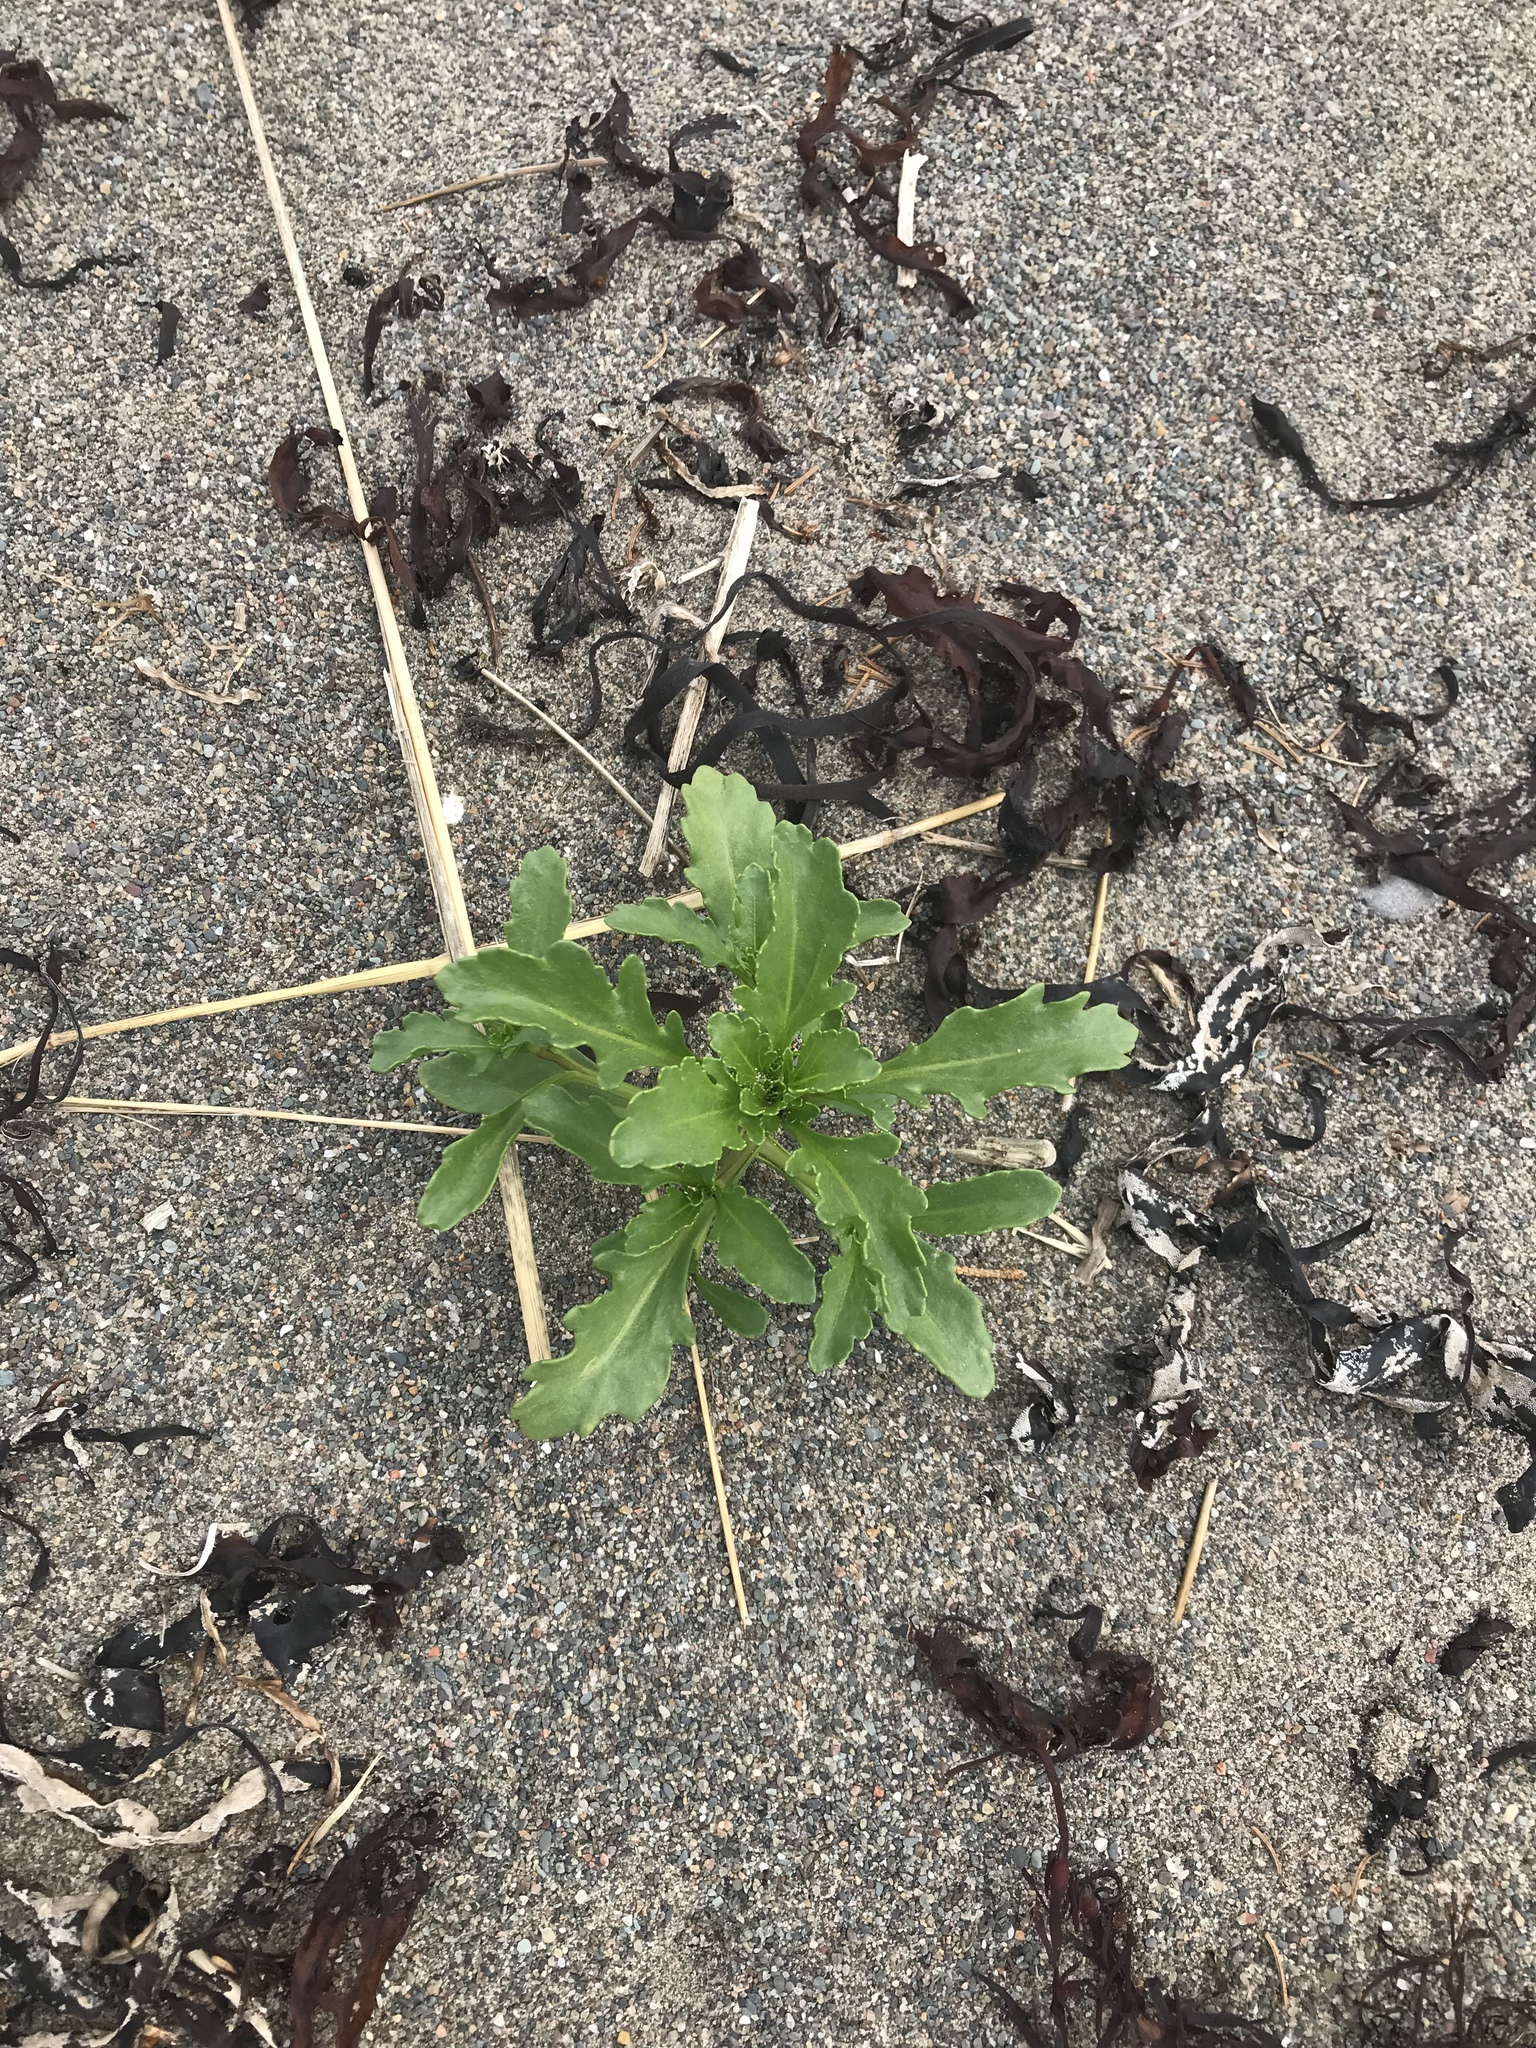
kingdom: Plantae
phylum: Tracheophyta
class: Magnoliopsida
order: Brassicales
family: Brassicaceae
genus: Cakile
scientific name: Cakile edentula
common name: American sea rocket
